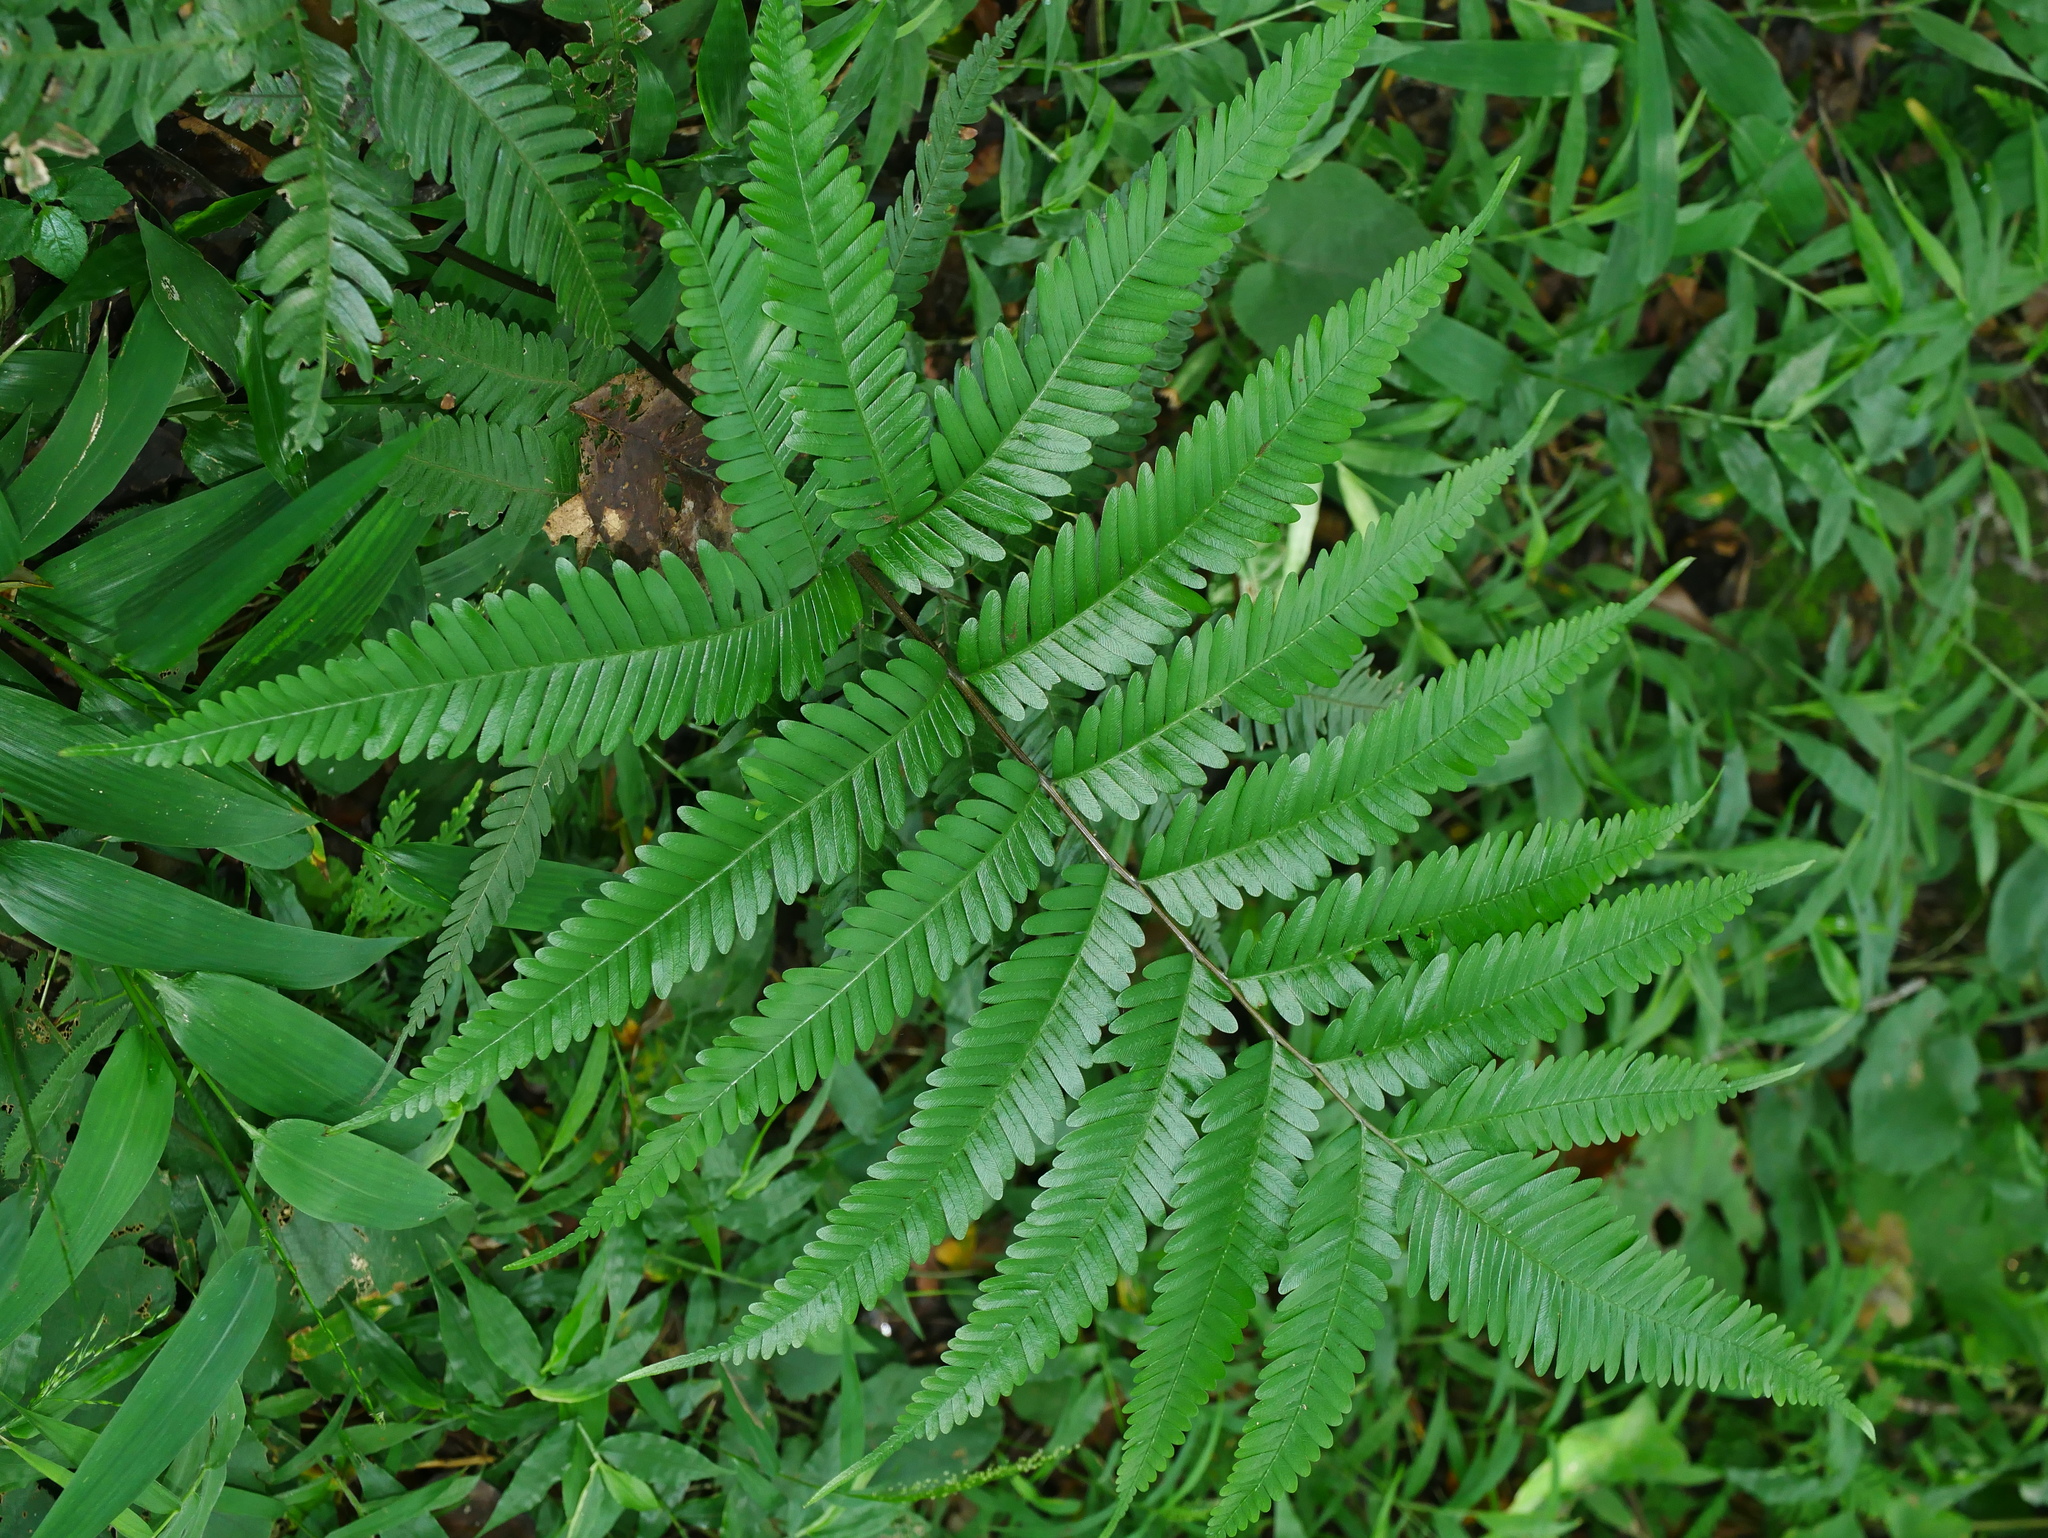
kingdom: Plantae
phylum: Tracheophyta
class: Polypodiopsida
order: Polypodiales
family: Pteridaceae
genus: Pteris
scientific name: Pteris fauriei
